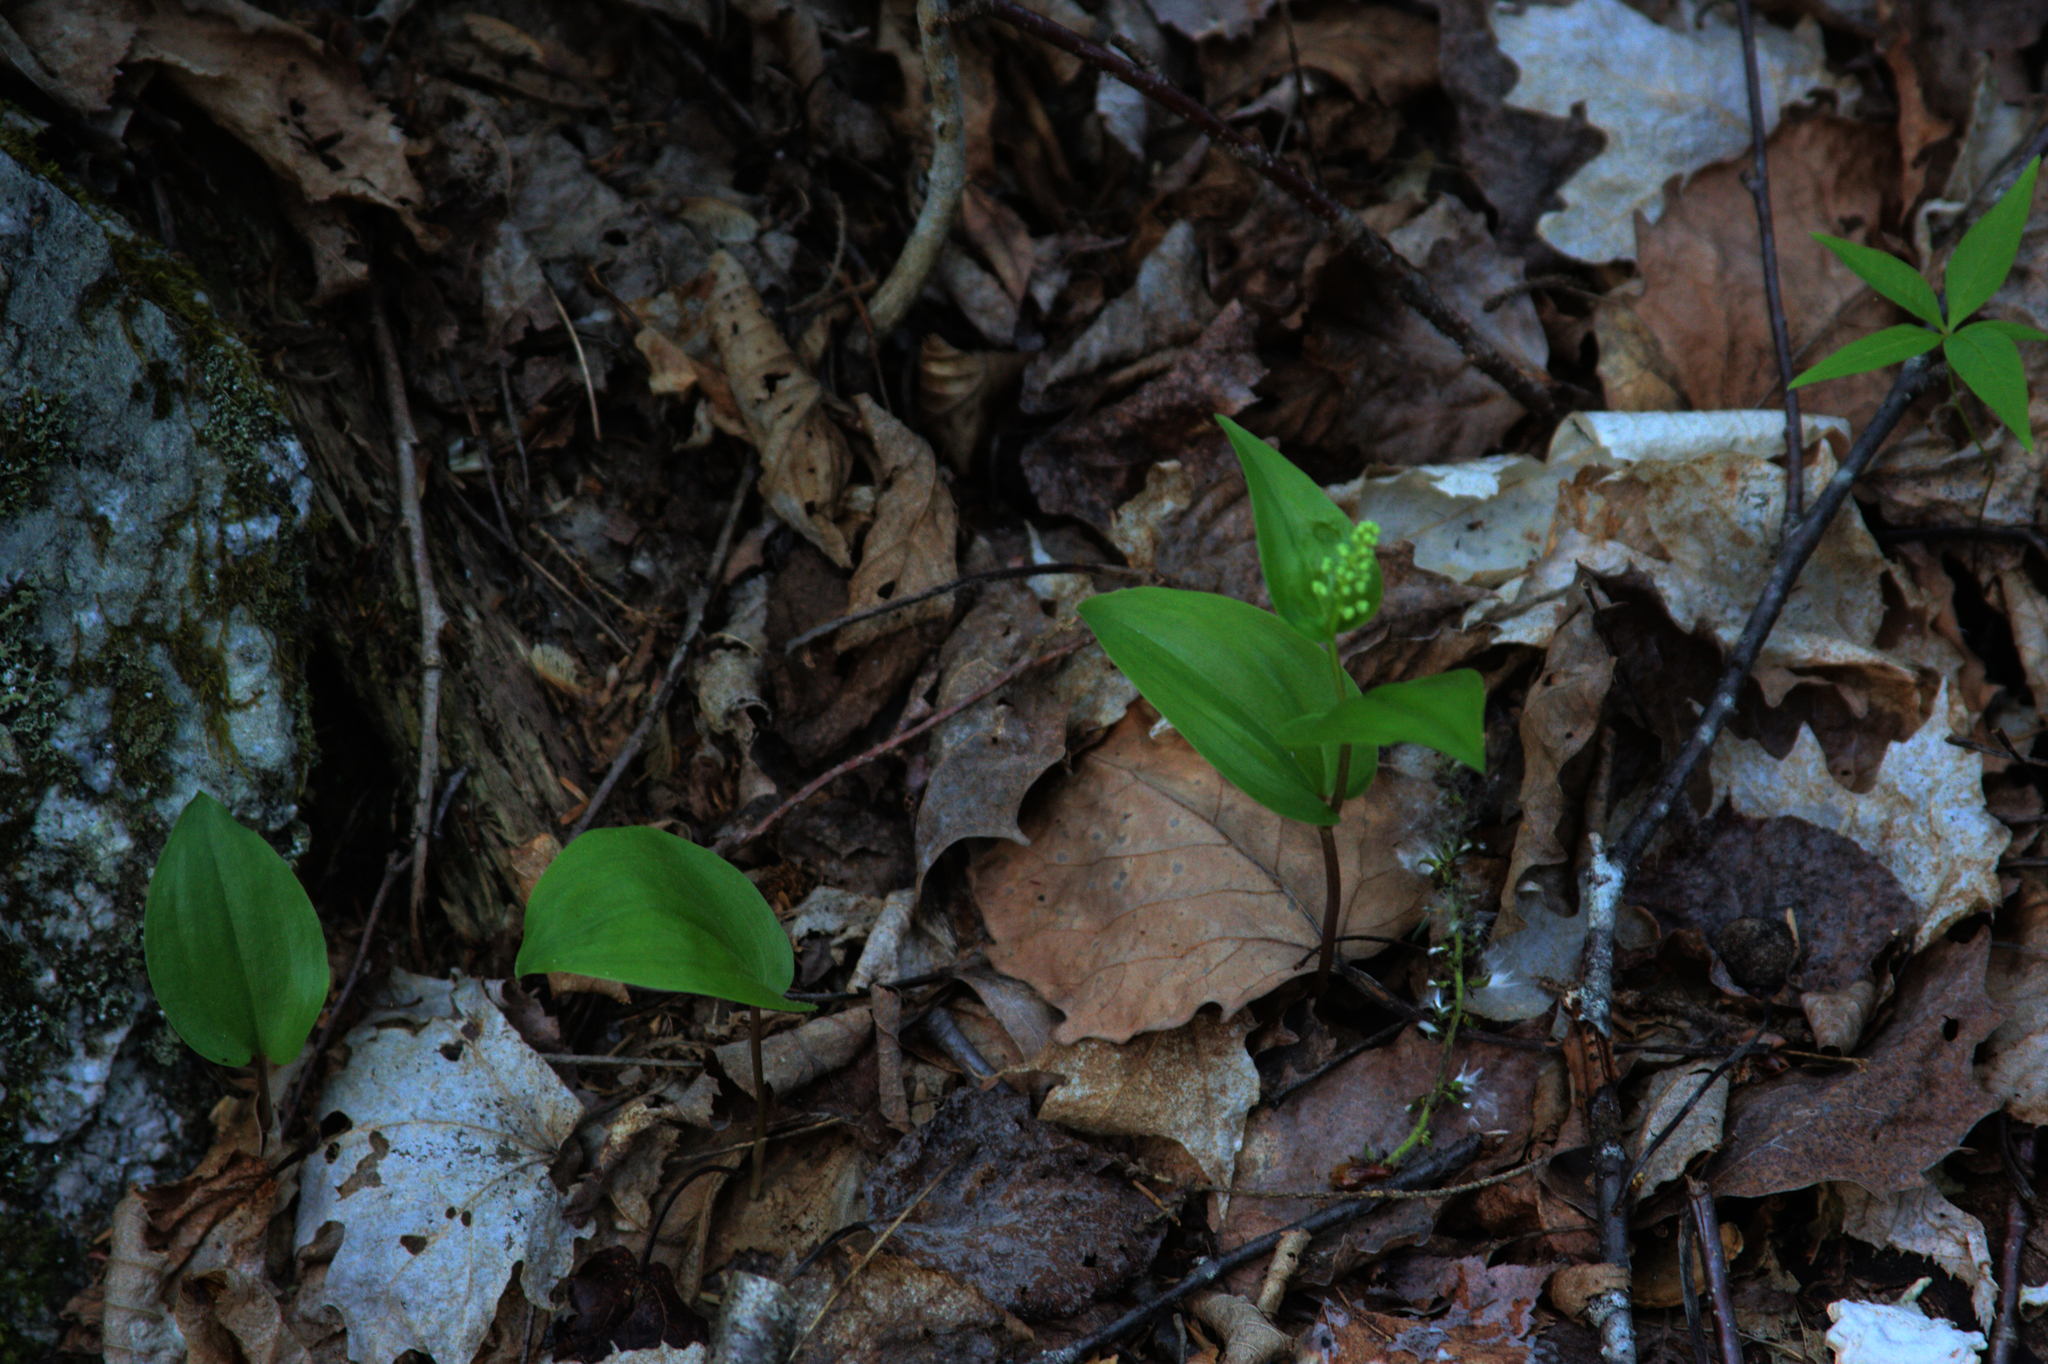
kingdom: Plantae
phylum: Tracheophyta
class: Liliopsida
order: Asparagales
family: Asparagaceae
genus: Maianthemum
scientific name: Maianthemum canadense
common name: False lily-of-the-valley
